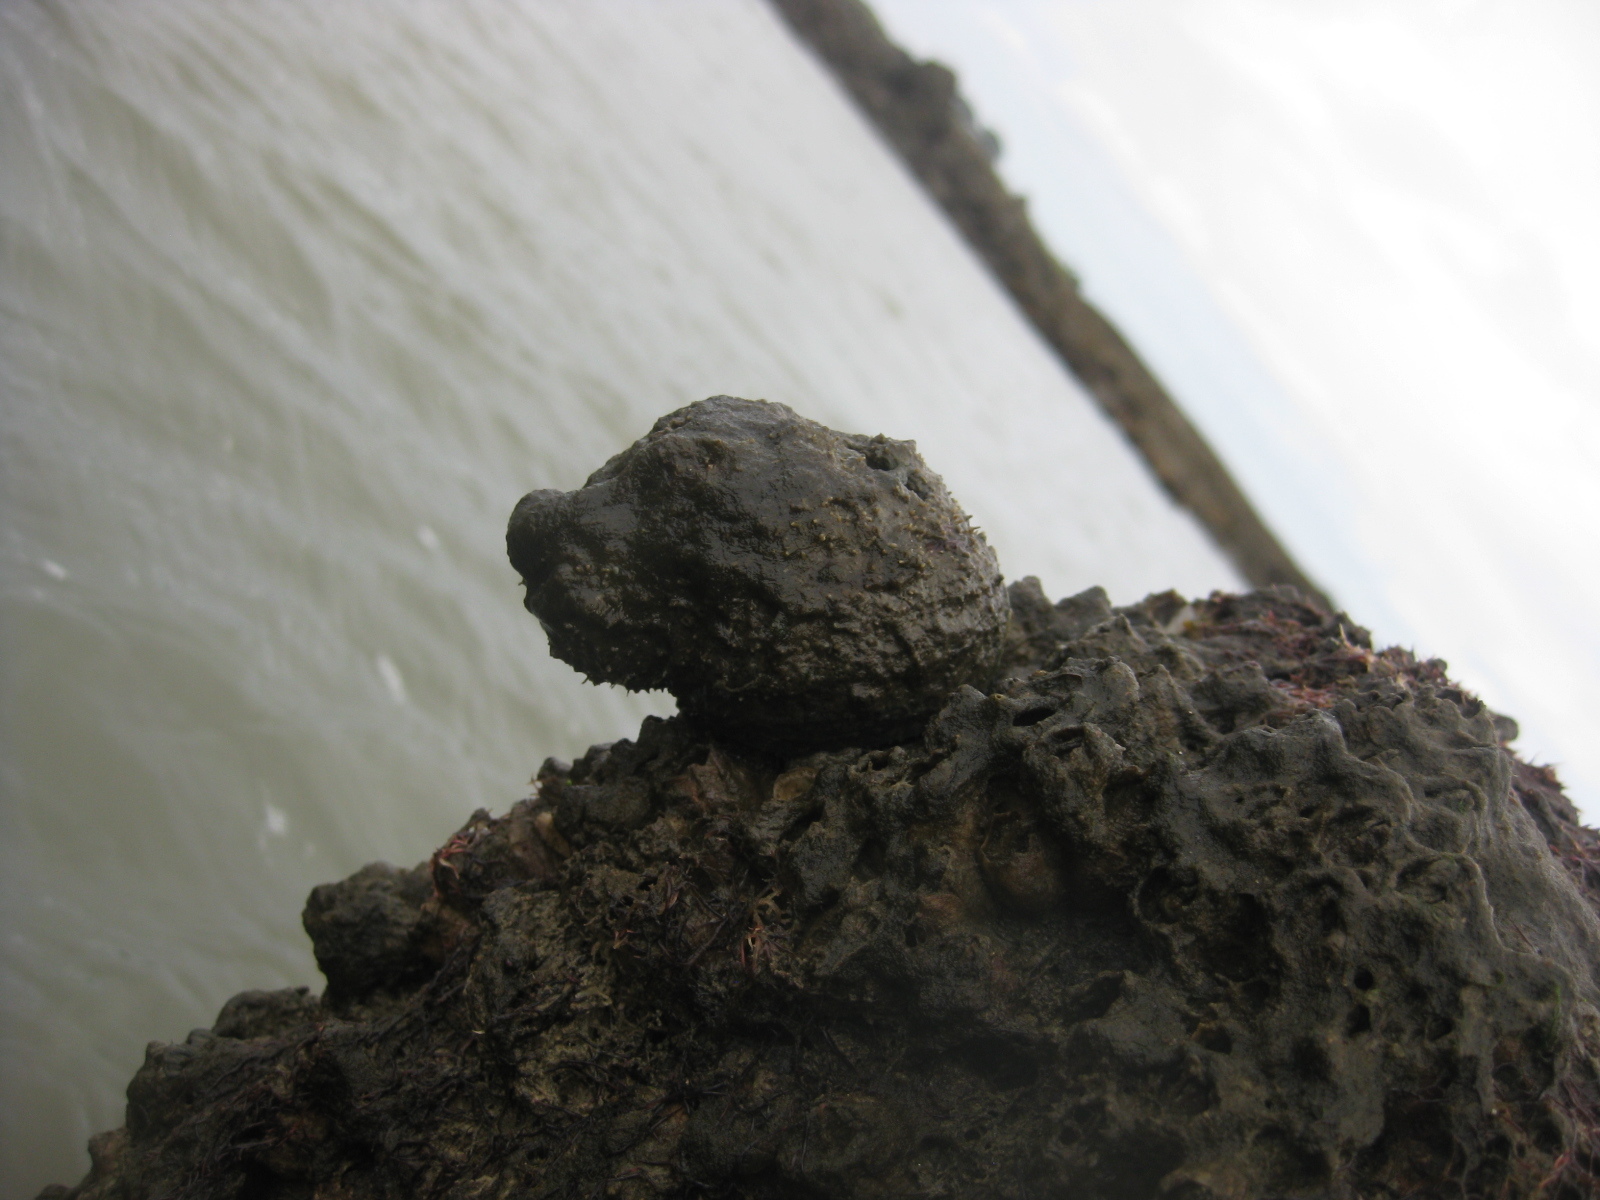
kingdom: Animalia
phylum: Mollusca
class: Gastropoda
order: Neogastropoda
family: Muricidae
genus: Dicathais
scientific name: Dicathais orbita
